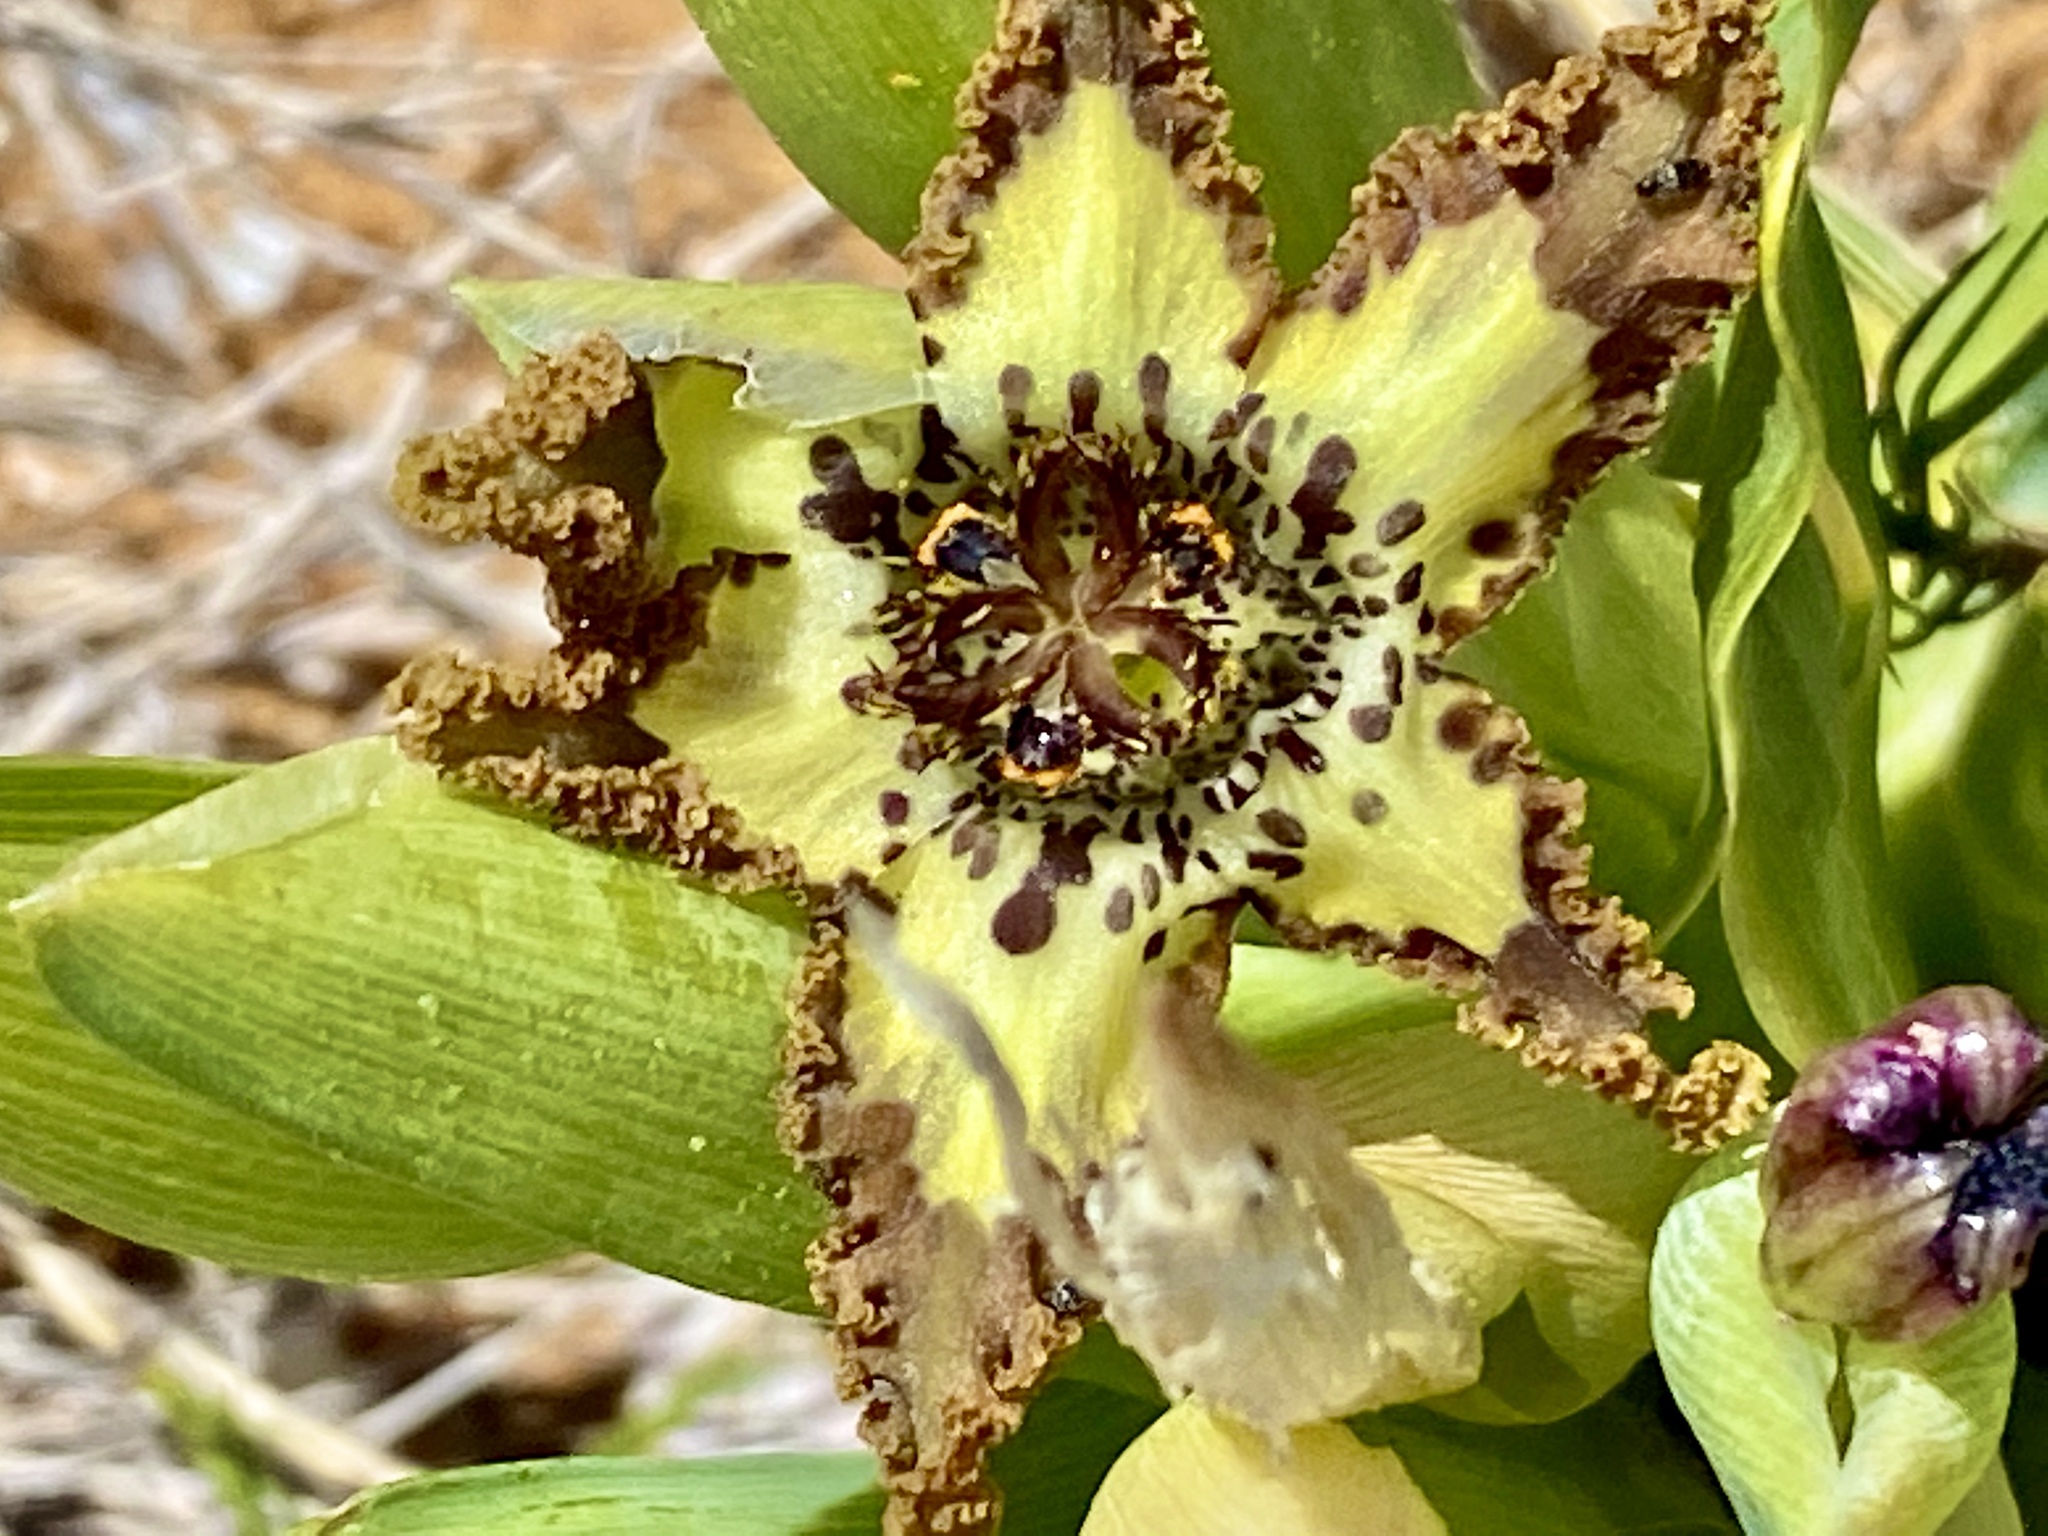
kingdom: Plantae
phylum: Tracheophyta
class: Liliopsida
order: Asparagales
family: Iridaceae
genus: Ferraria
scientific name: Ferraria crispa
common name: Black-flag
